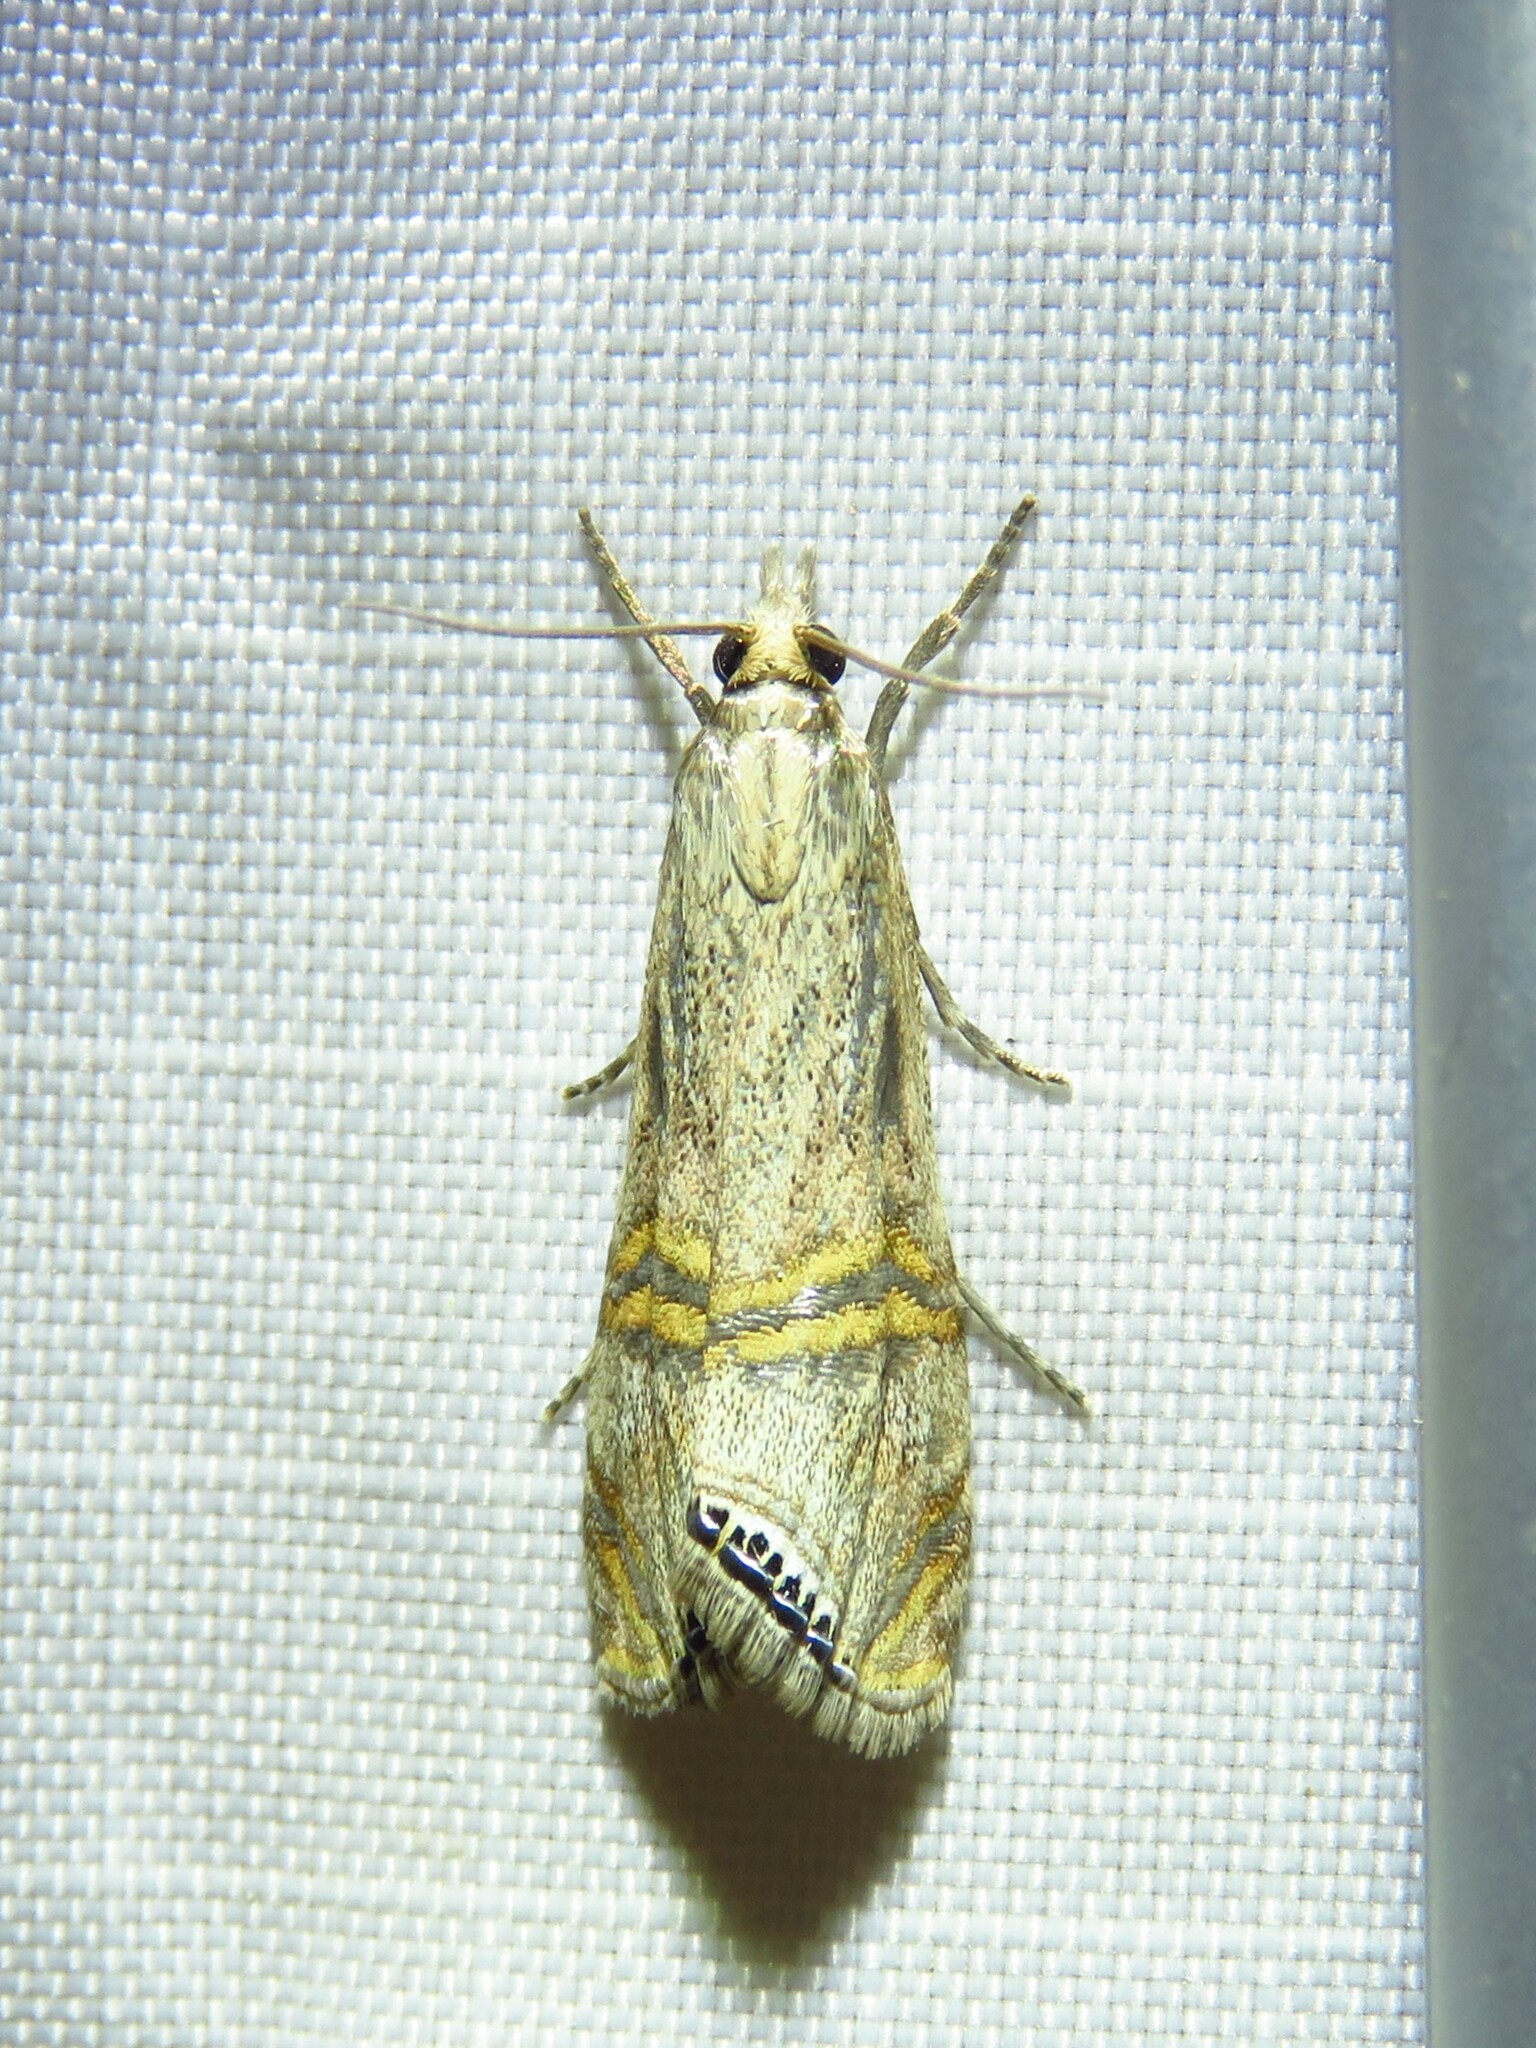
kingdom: Animalia
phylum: Arthropoda
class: Insecta
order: Lepidoptera
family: Crambidae
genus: Euchromius
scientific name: Euchromius ocellea
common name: Necklace veneer moth
